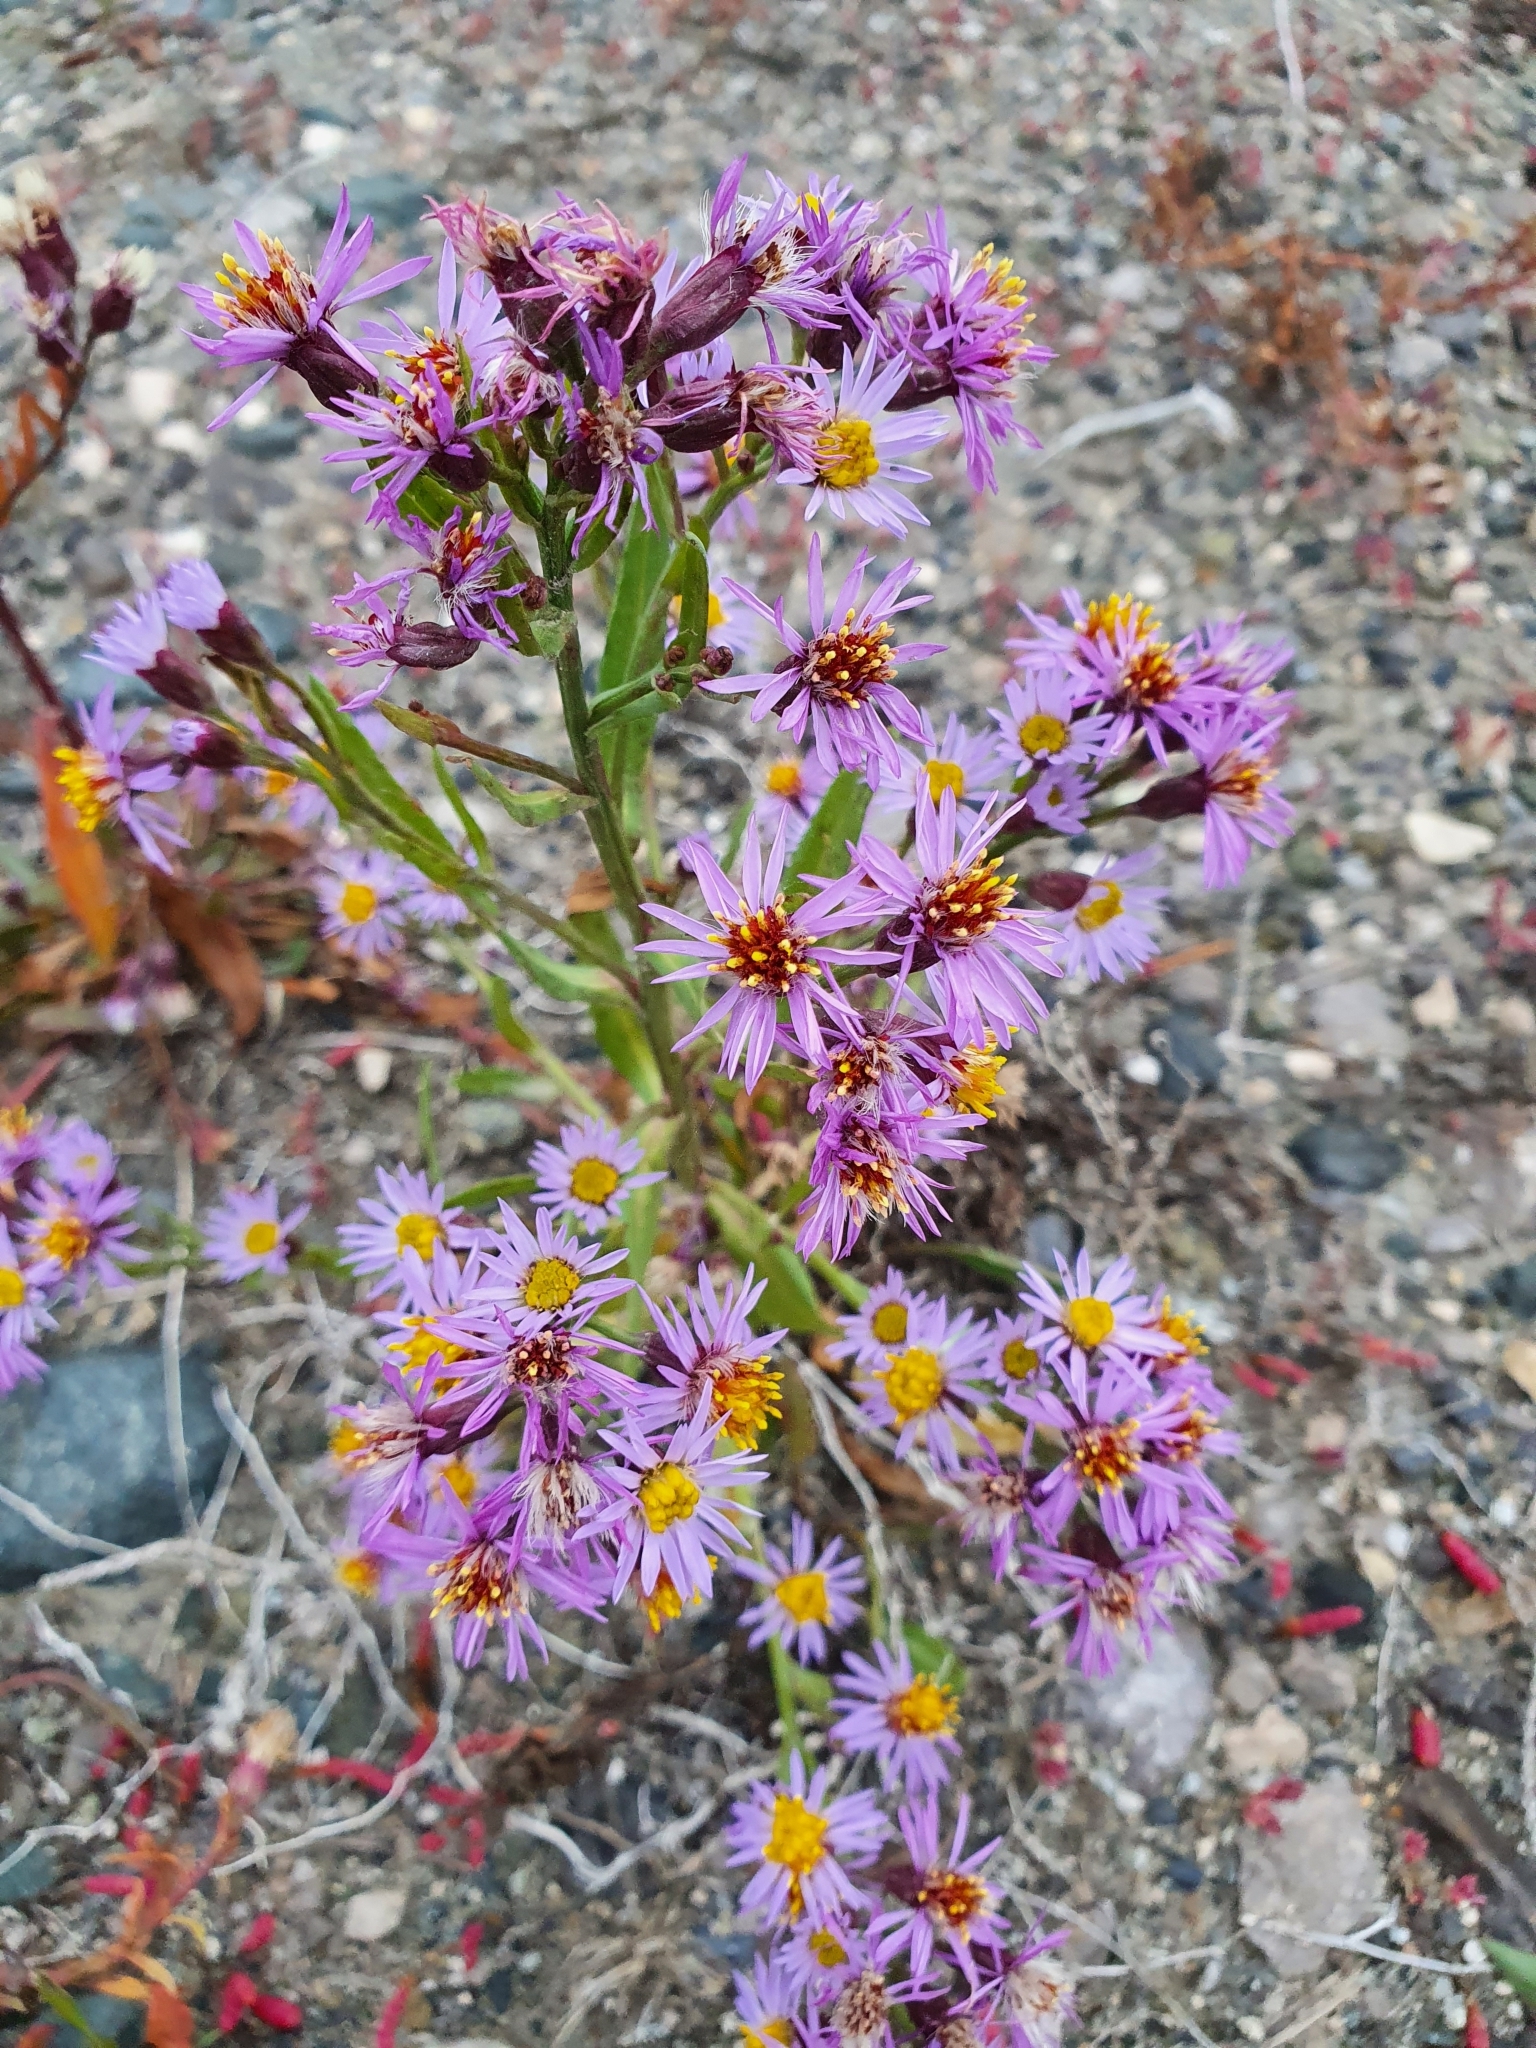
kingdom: Plantae
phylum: Tracheophyta
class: Magnoliopsida
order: Asterales
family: Asteraceae
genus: Tripolium
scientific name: Tripolium pannonicum
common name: Sea aster
